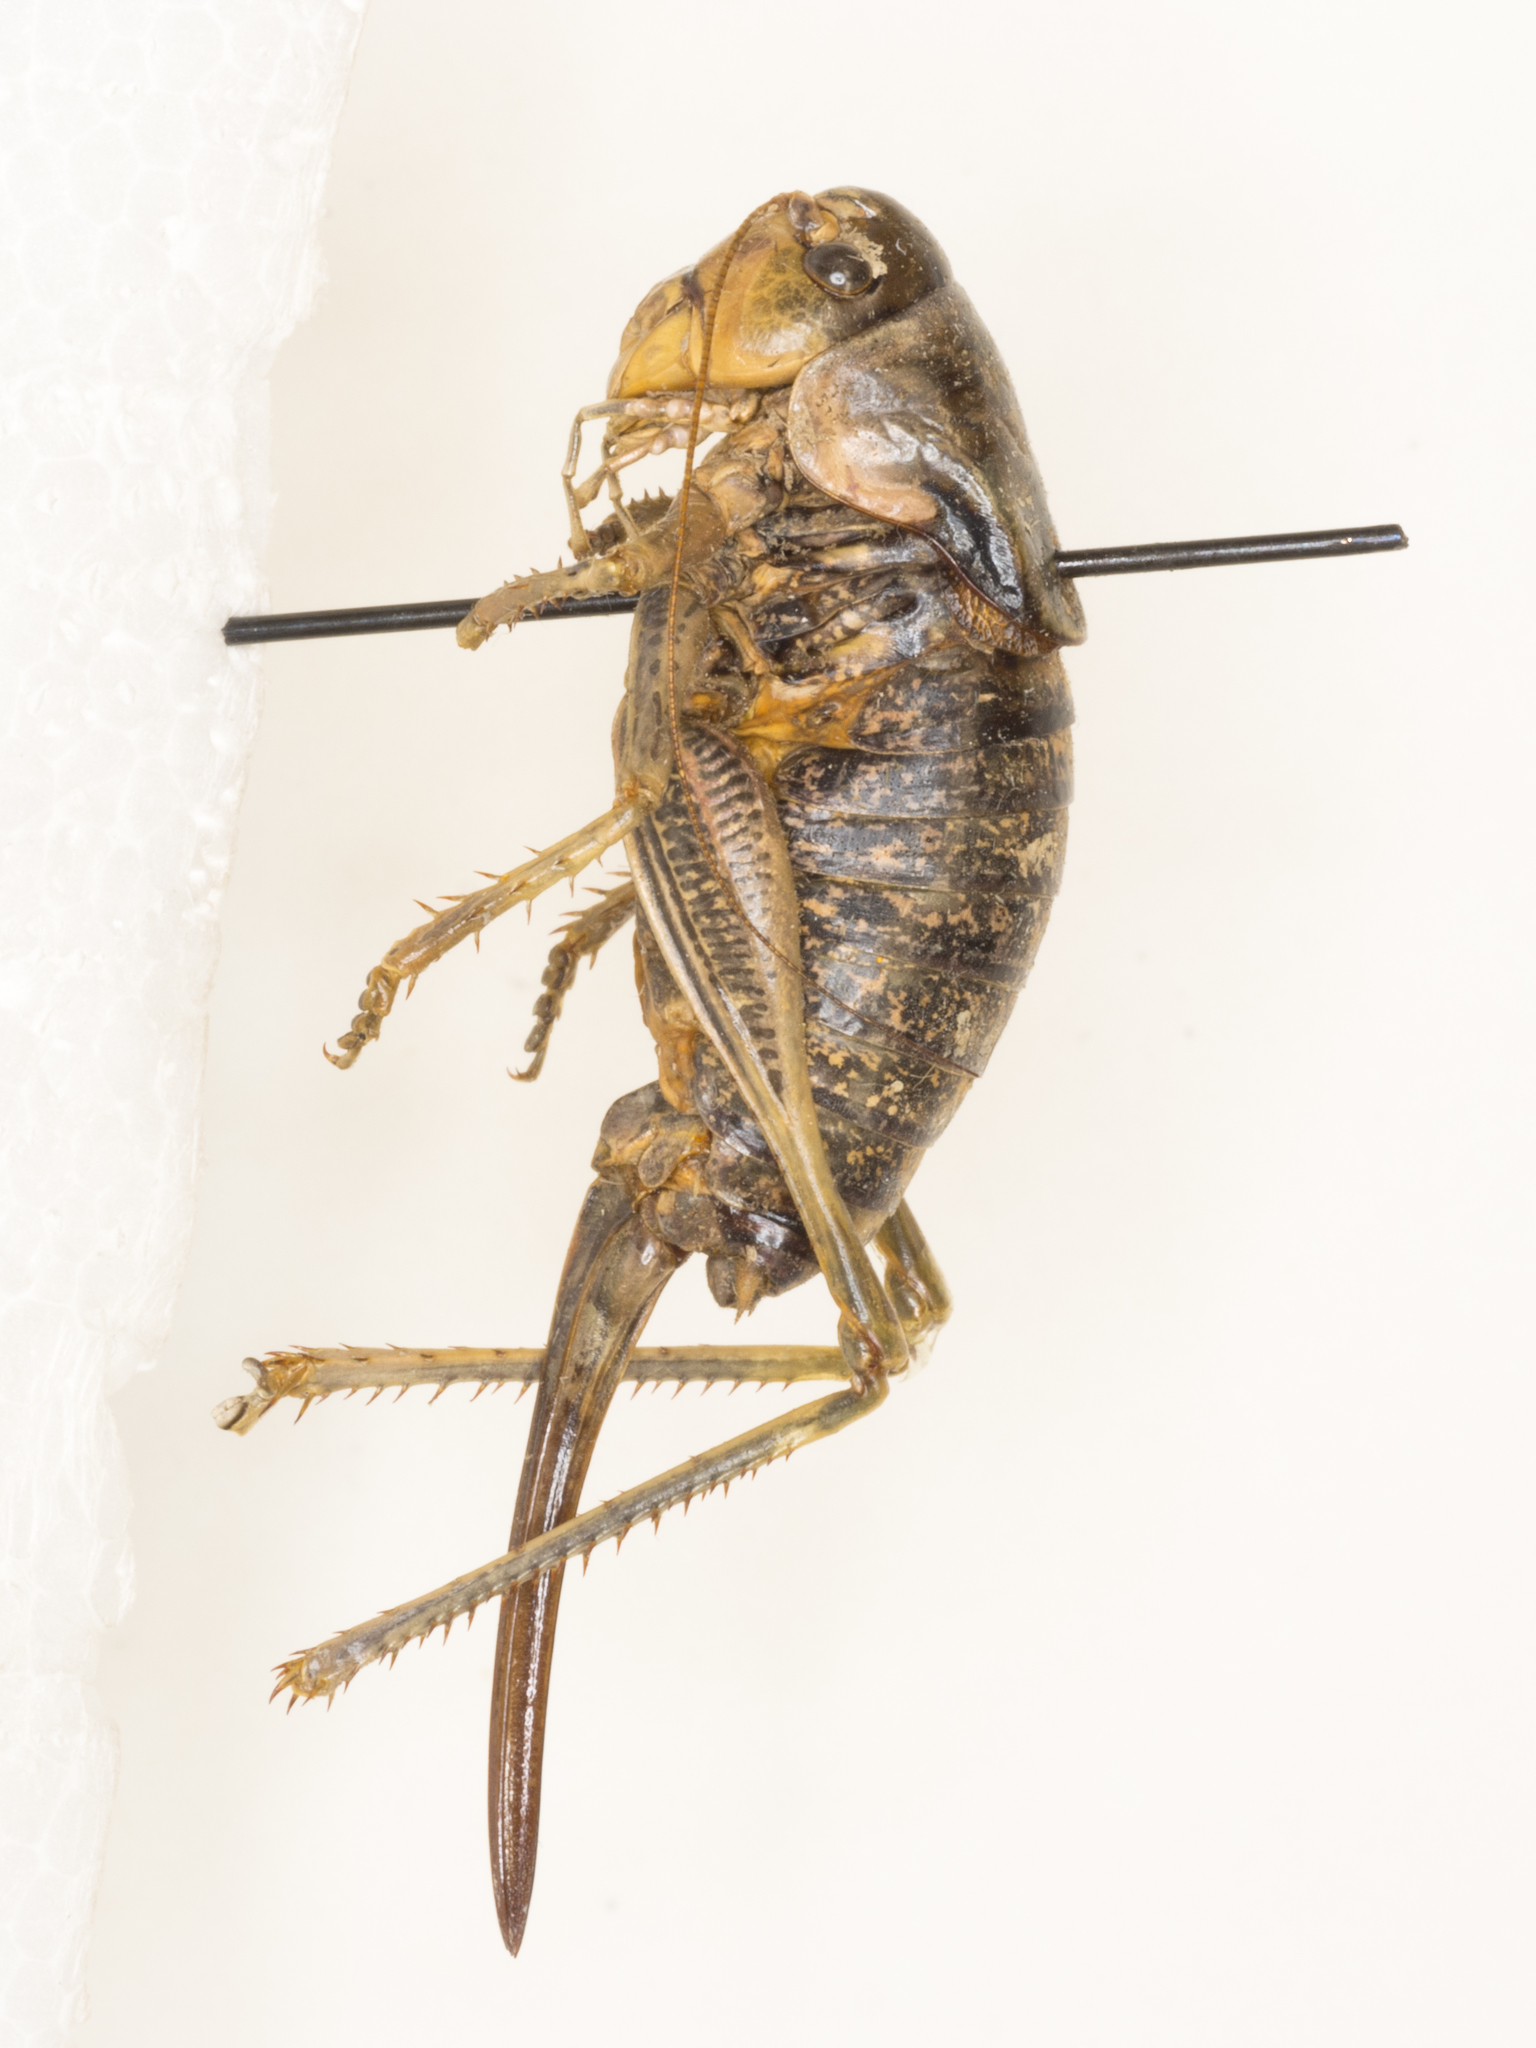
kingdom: Animalia
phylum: Arthropoda
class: Insecta
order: Orthoptera
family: Tettigoniidae
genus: Anabrus
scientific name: Anabrus simplex
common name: Mormon cricket
